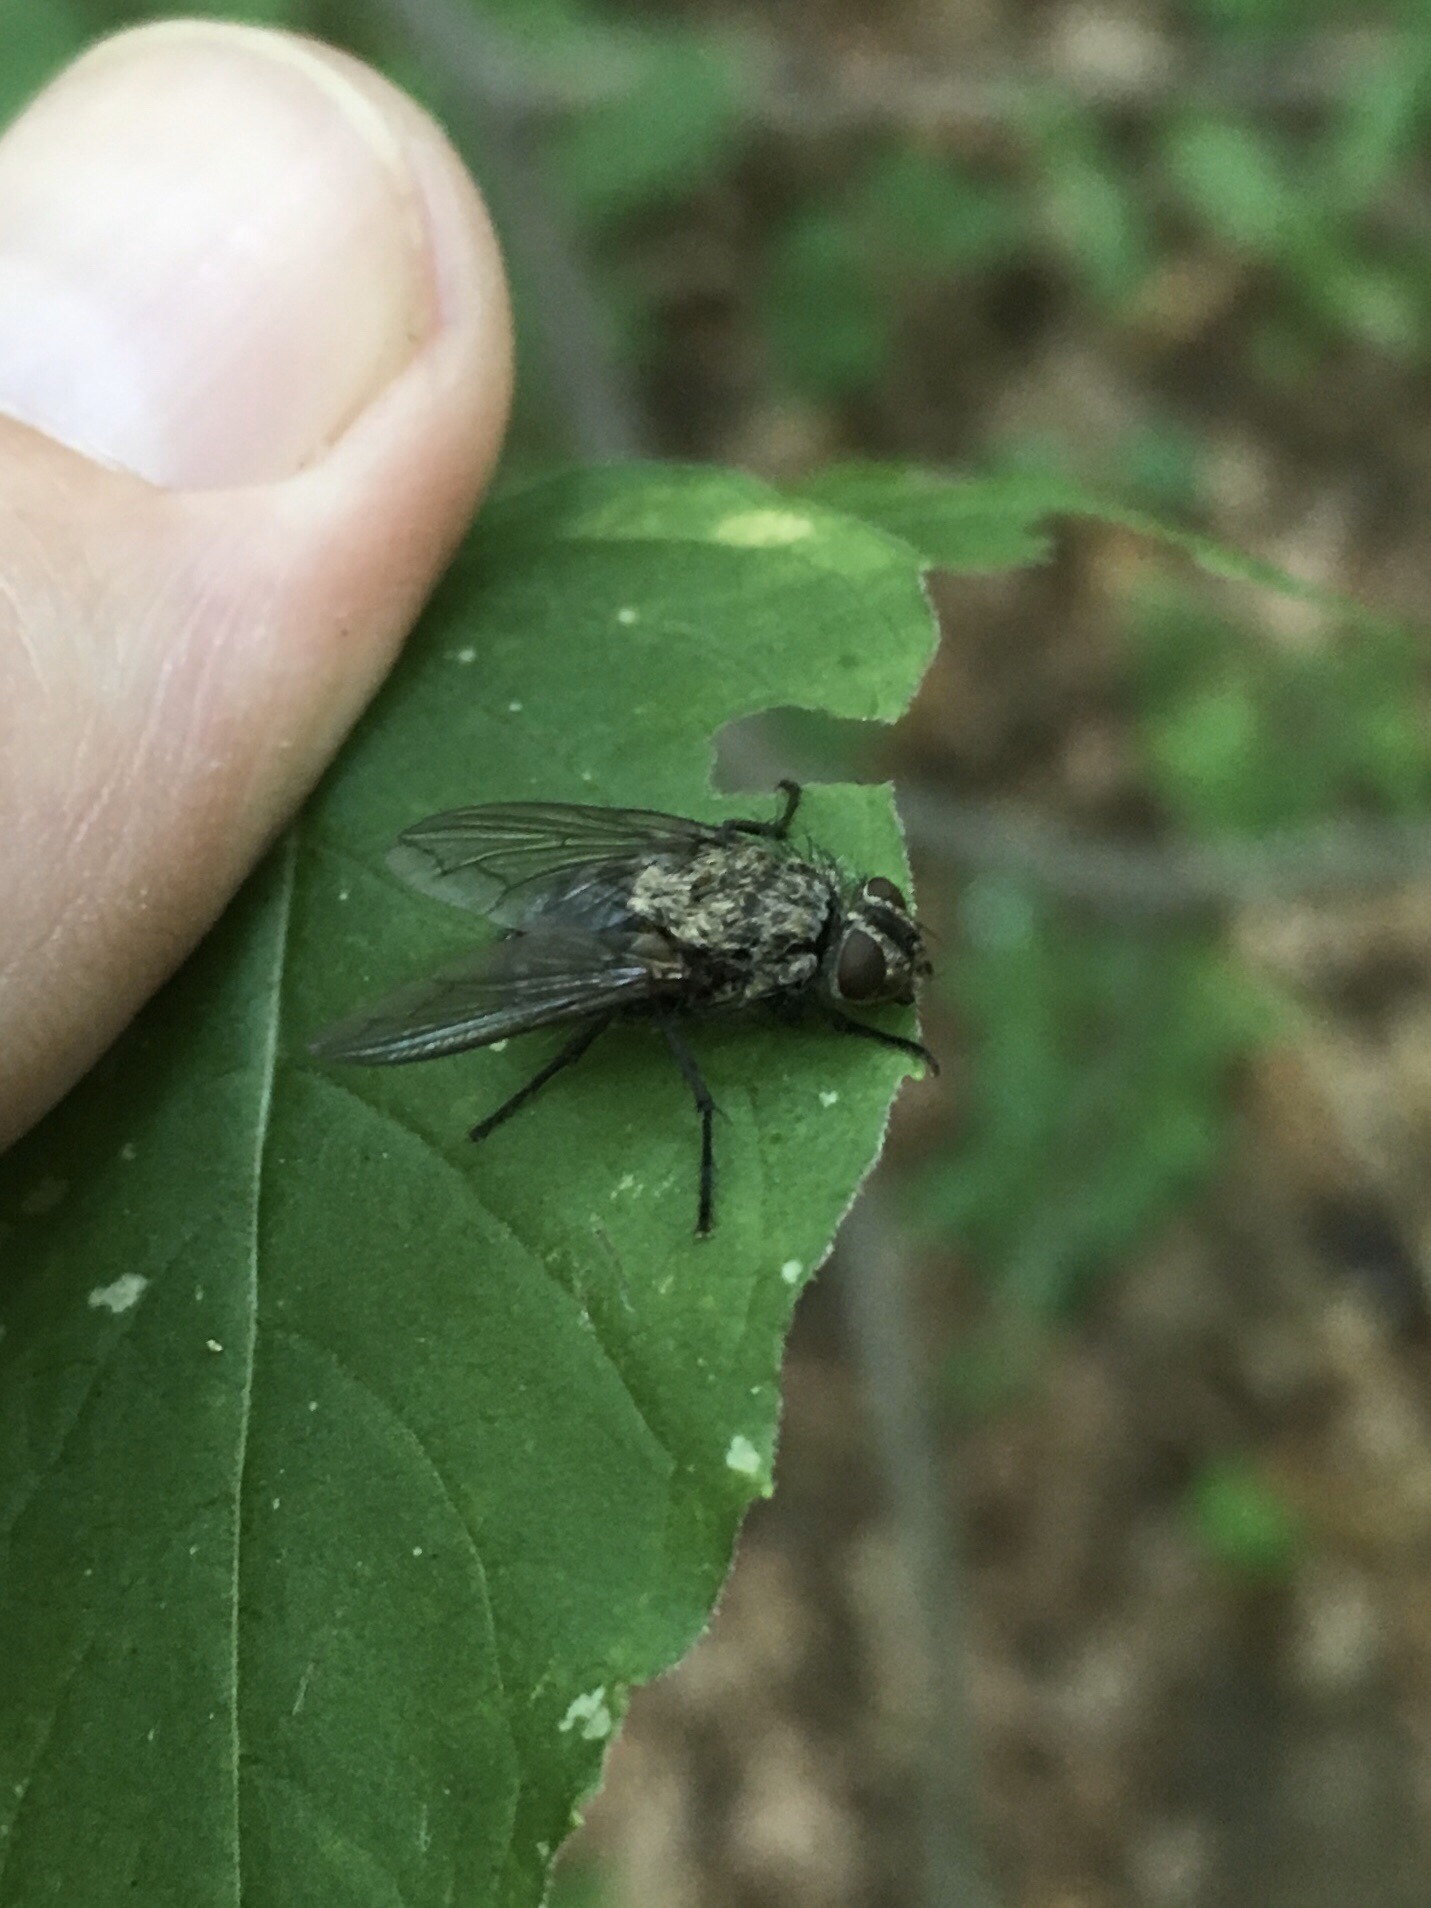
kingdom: Animalia
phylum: Arthropoda
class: Insecta
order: Diptera
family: Polleniidae
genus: Pollenia
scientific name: Pollenia
